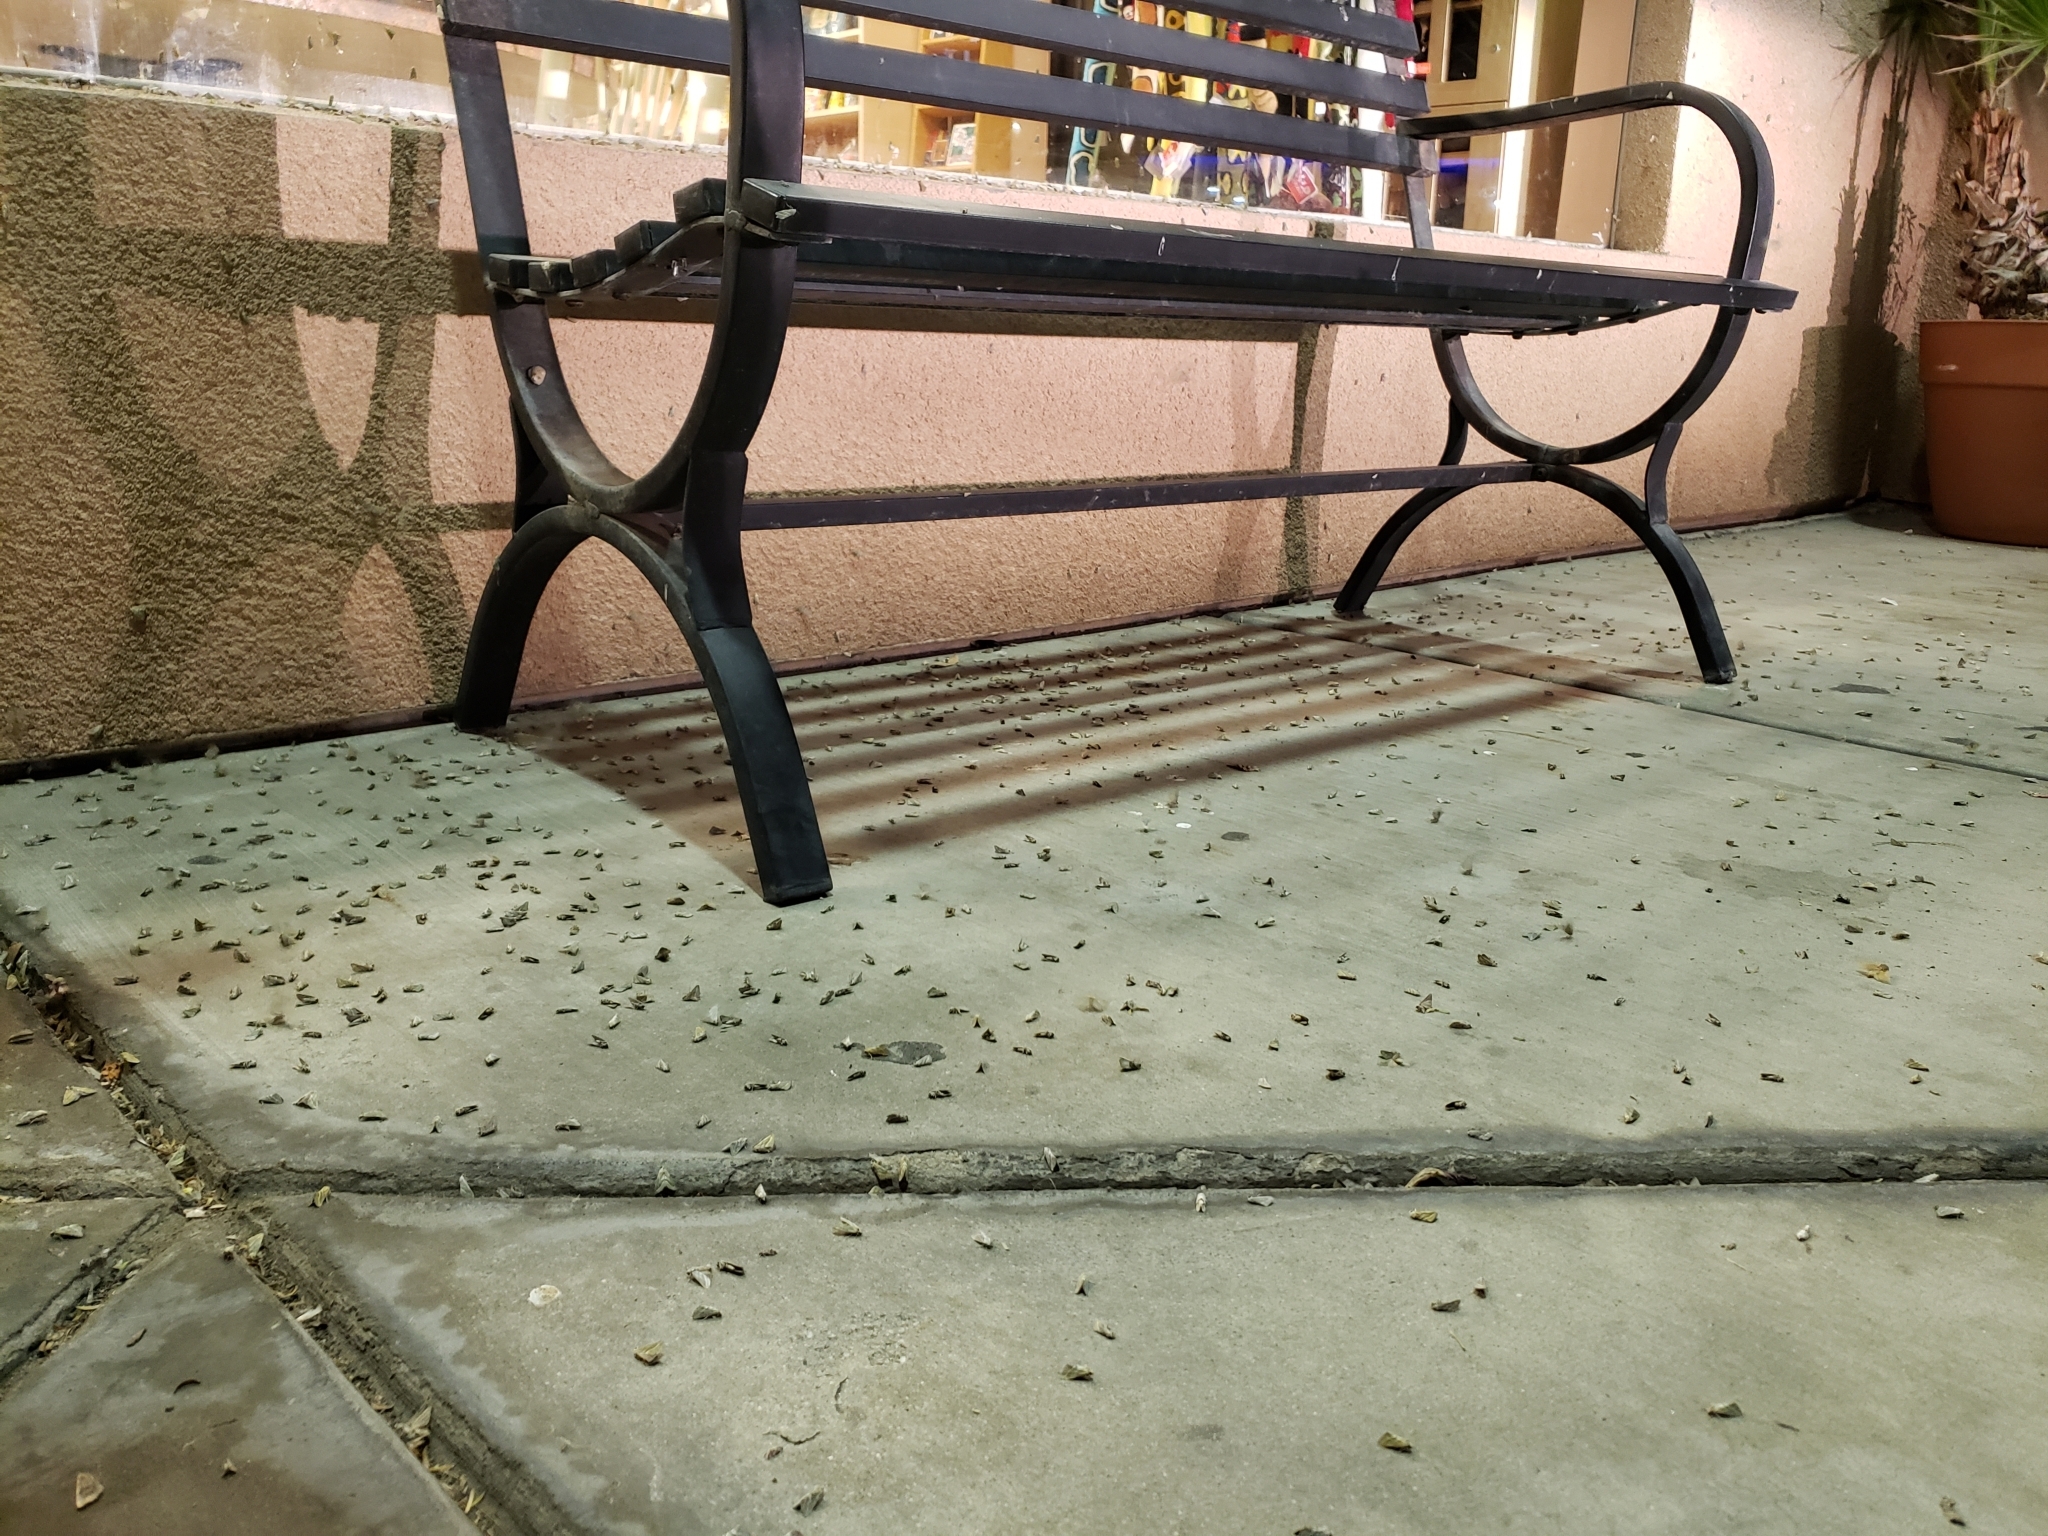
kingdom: Animalia
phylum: Arthropoda
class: Insecta
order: Lepidoptera
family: Noctuidae
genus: Lineostriastiria
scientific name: Lineostriastiria hutsoni
